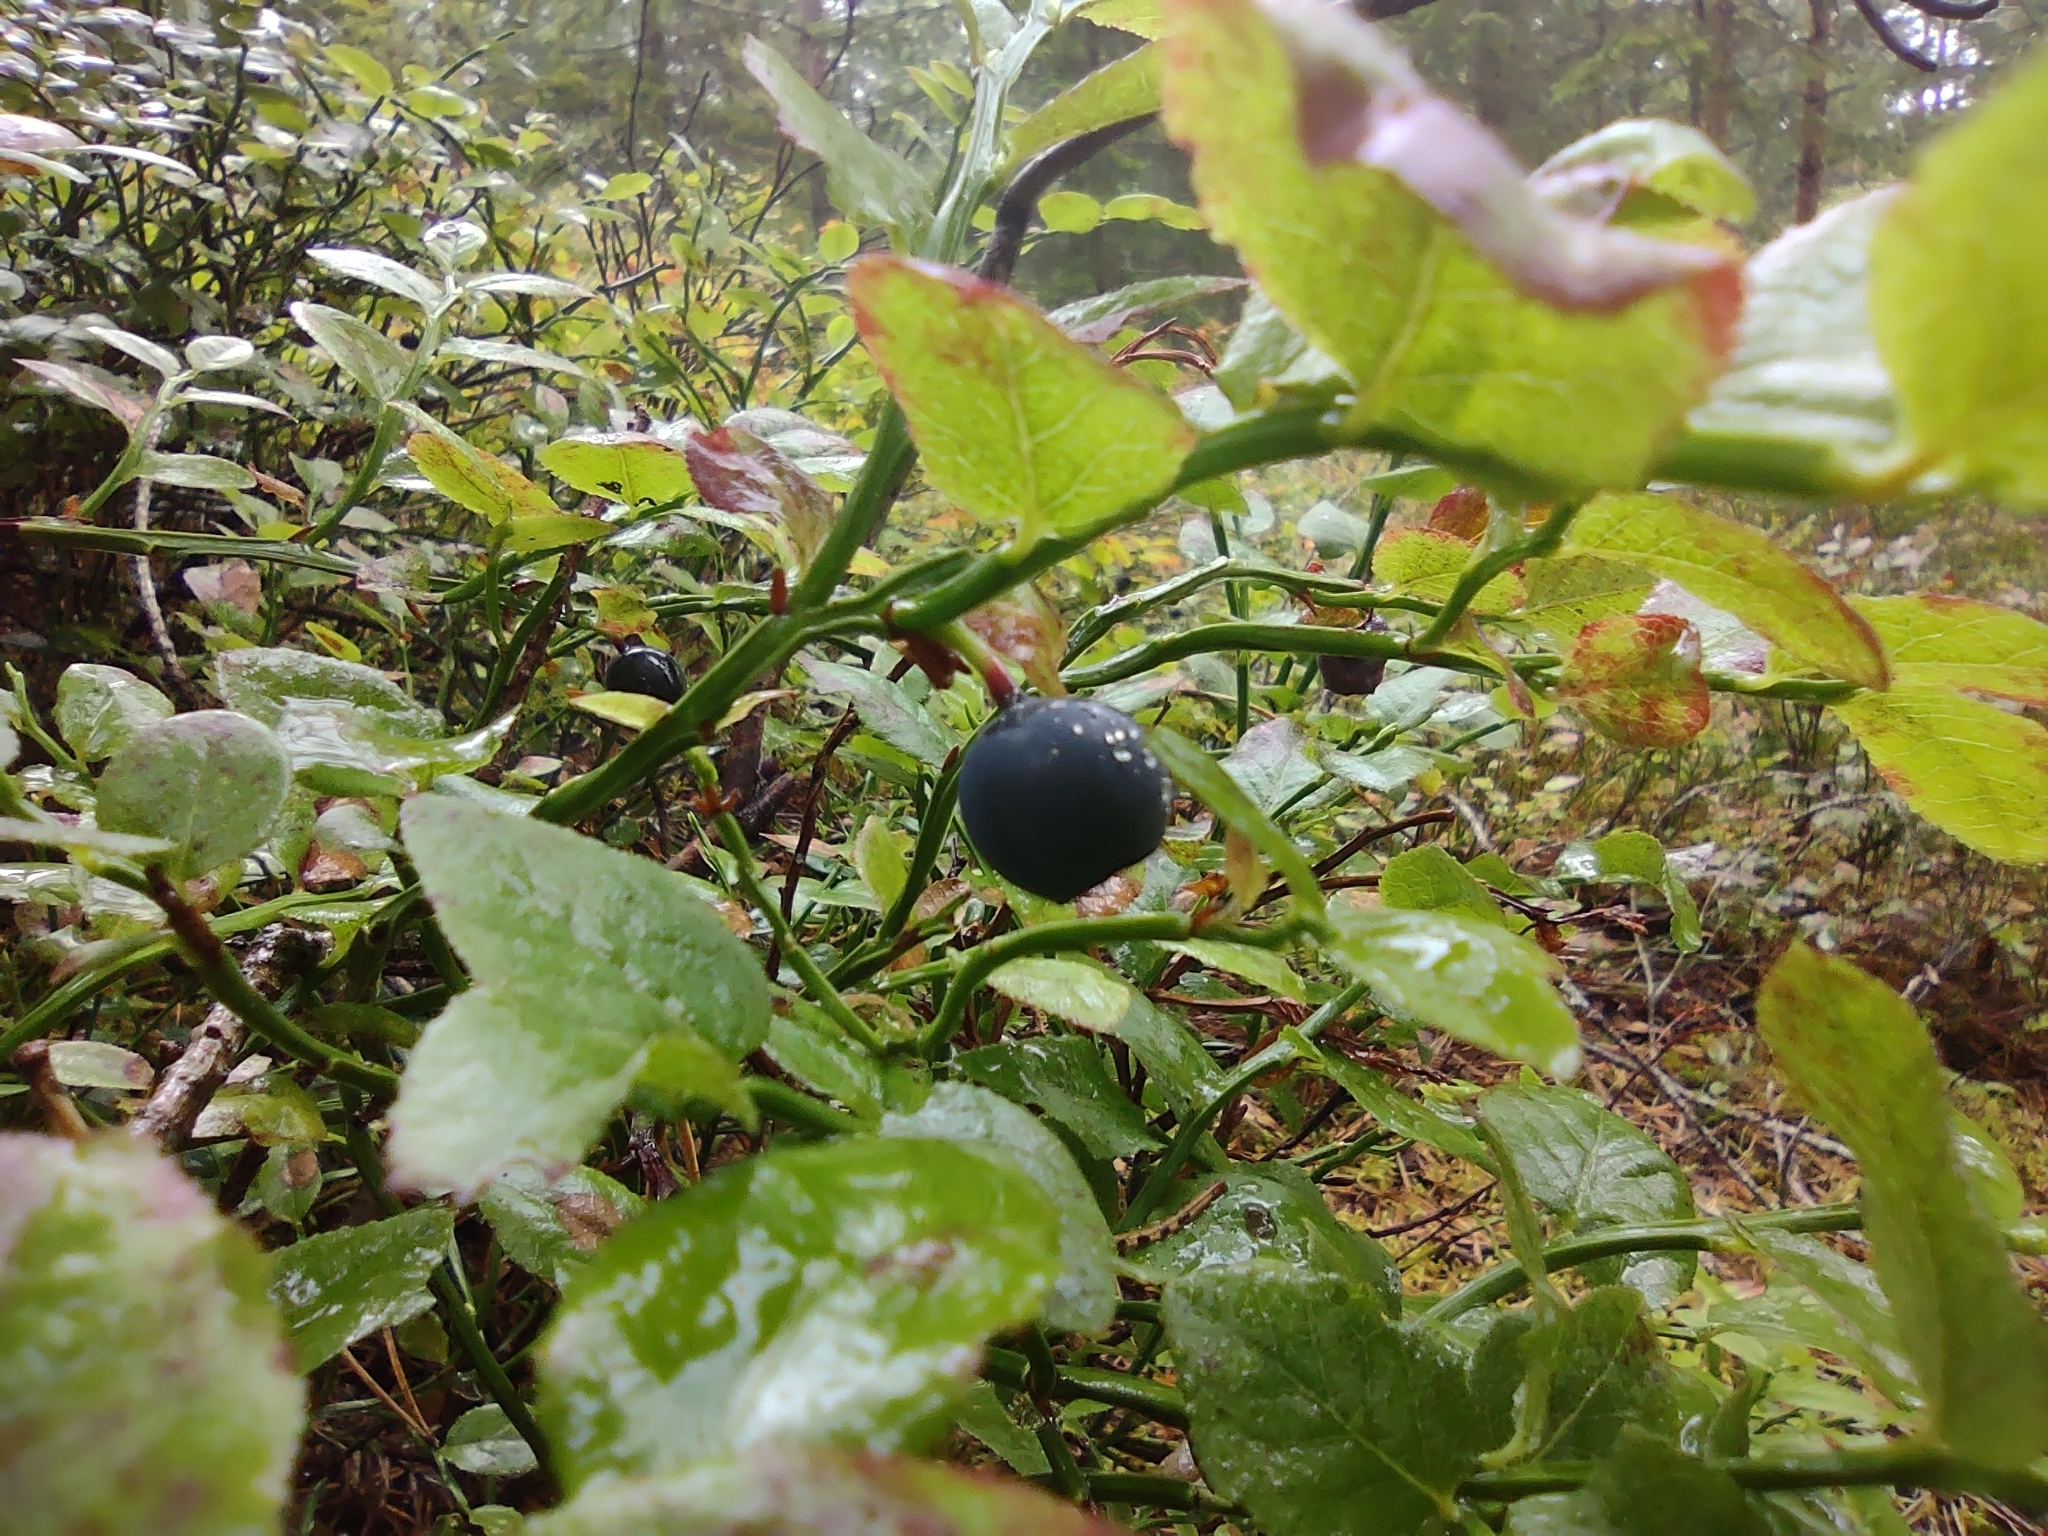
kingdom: Plantae
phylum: Tracheophyta
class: Magnoliopsida
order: Ericales
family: Ericaceae
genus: Vaccinium
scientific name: Vaccinium myrtillus
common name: Bilberry
